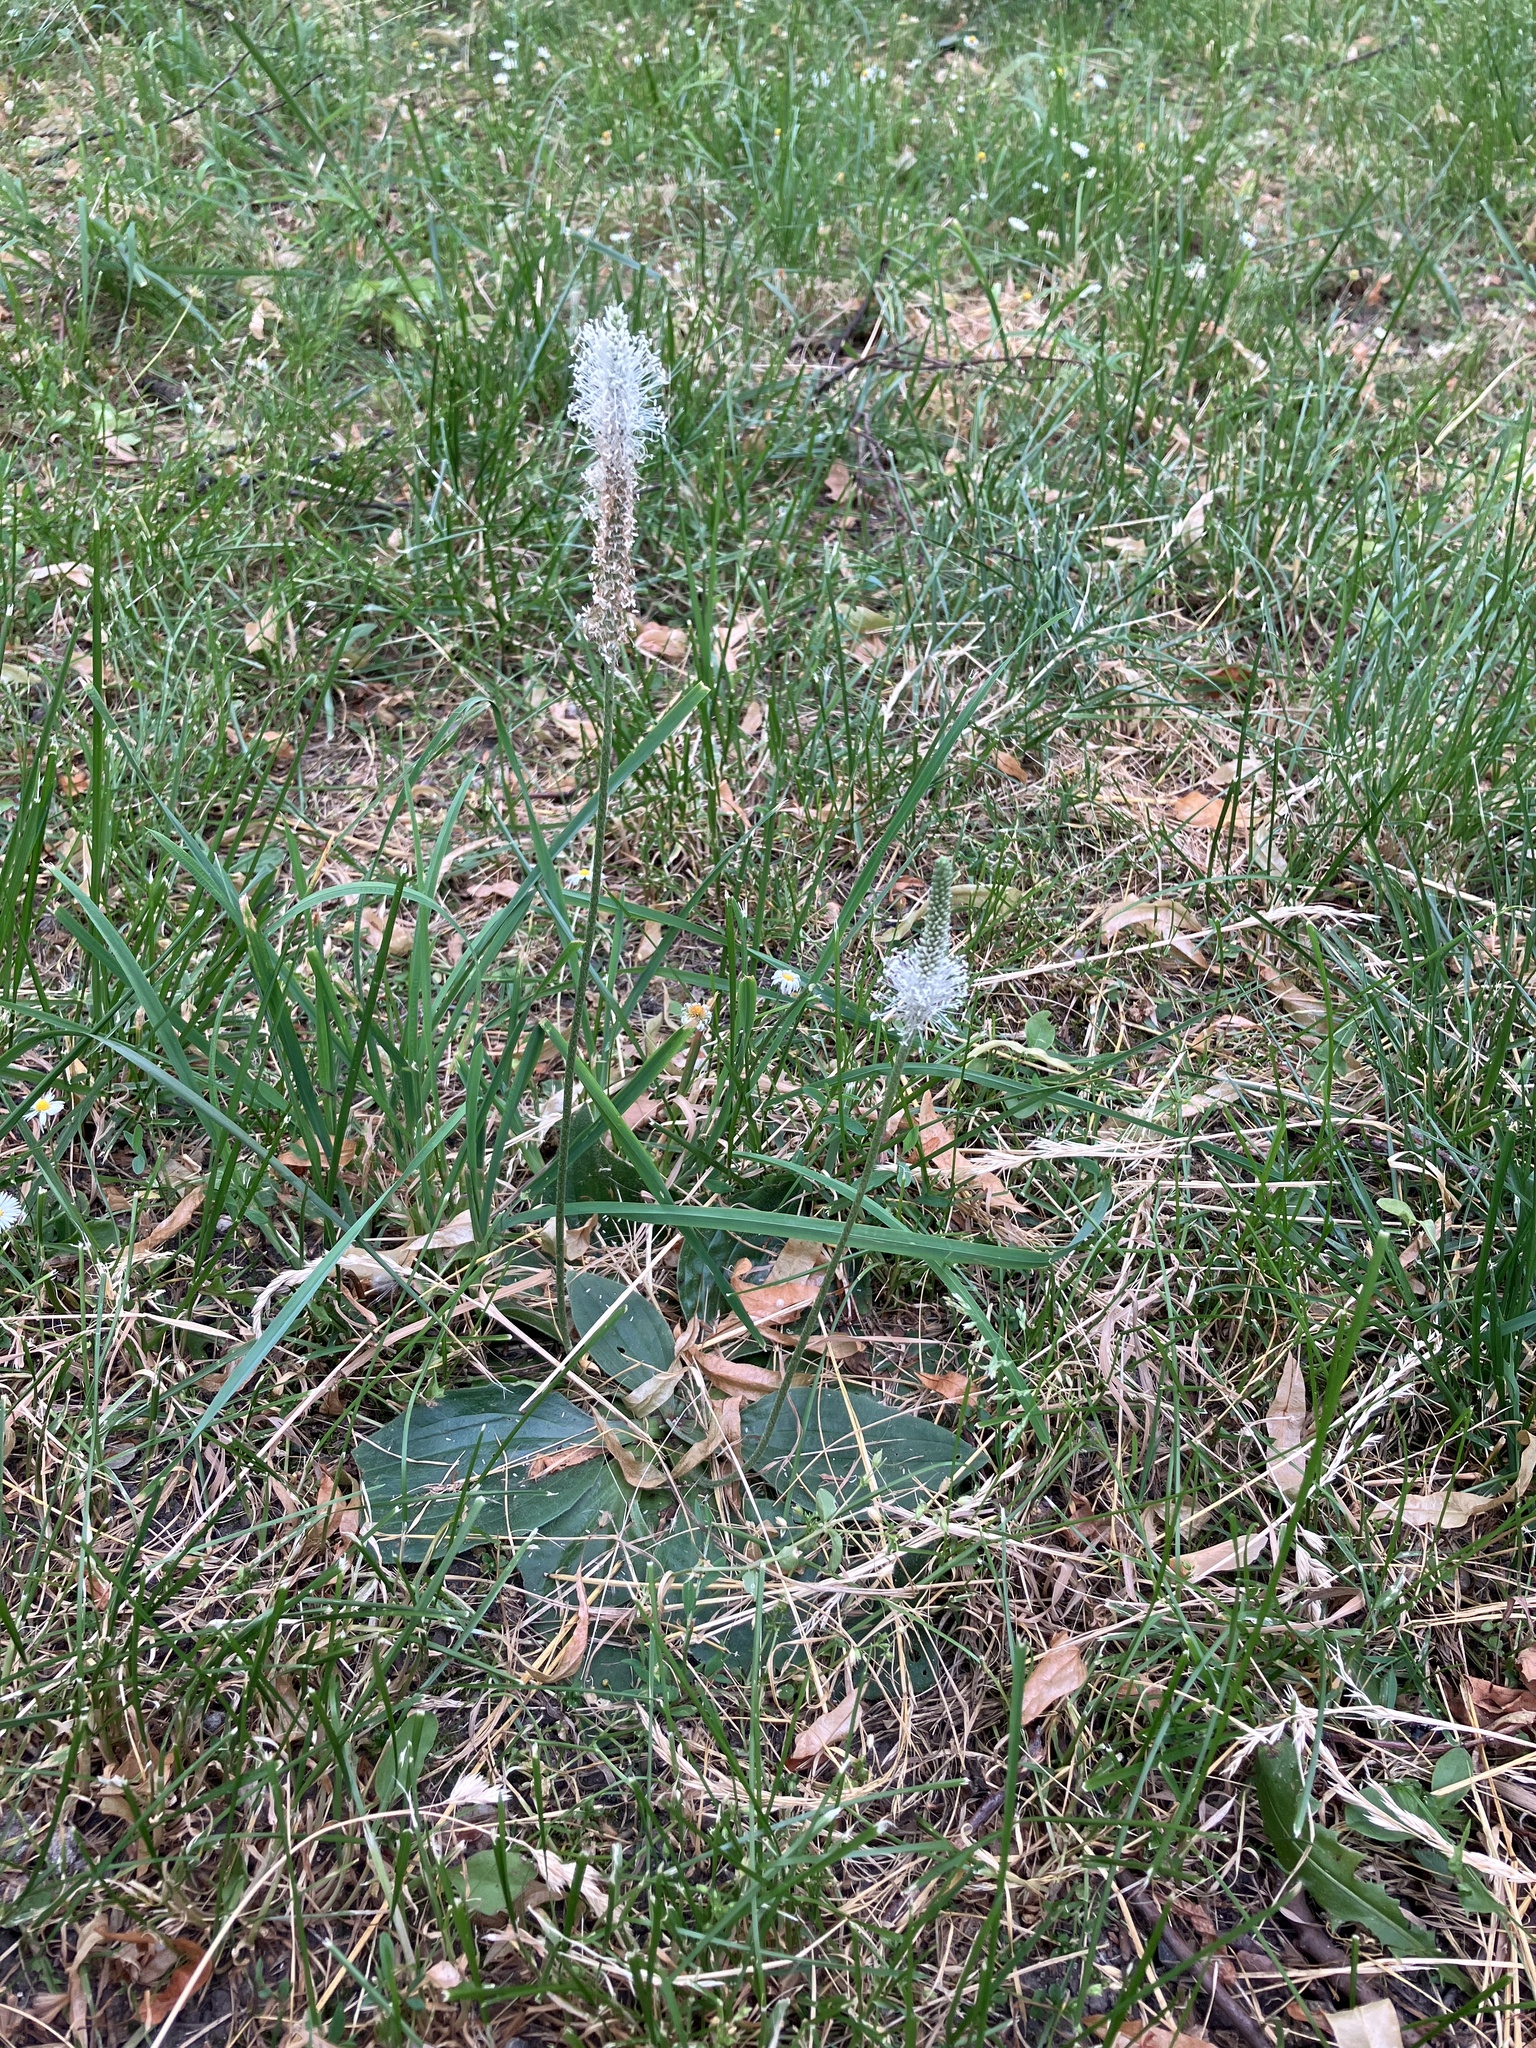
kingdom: Plantae
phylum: Tracheophyta
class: Magnoliopsida
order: Lamiales
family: Plantaginaceae
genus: Plantago
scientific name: Plantago media
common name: Hoary plantain
